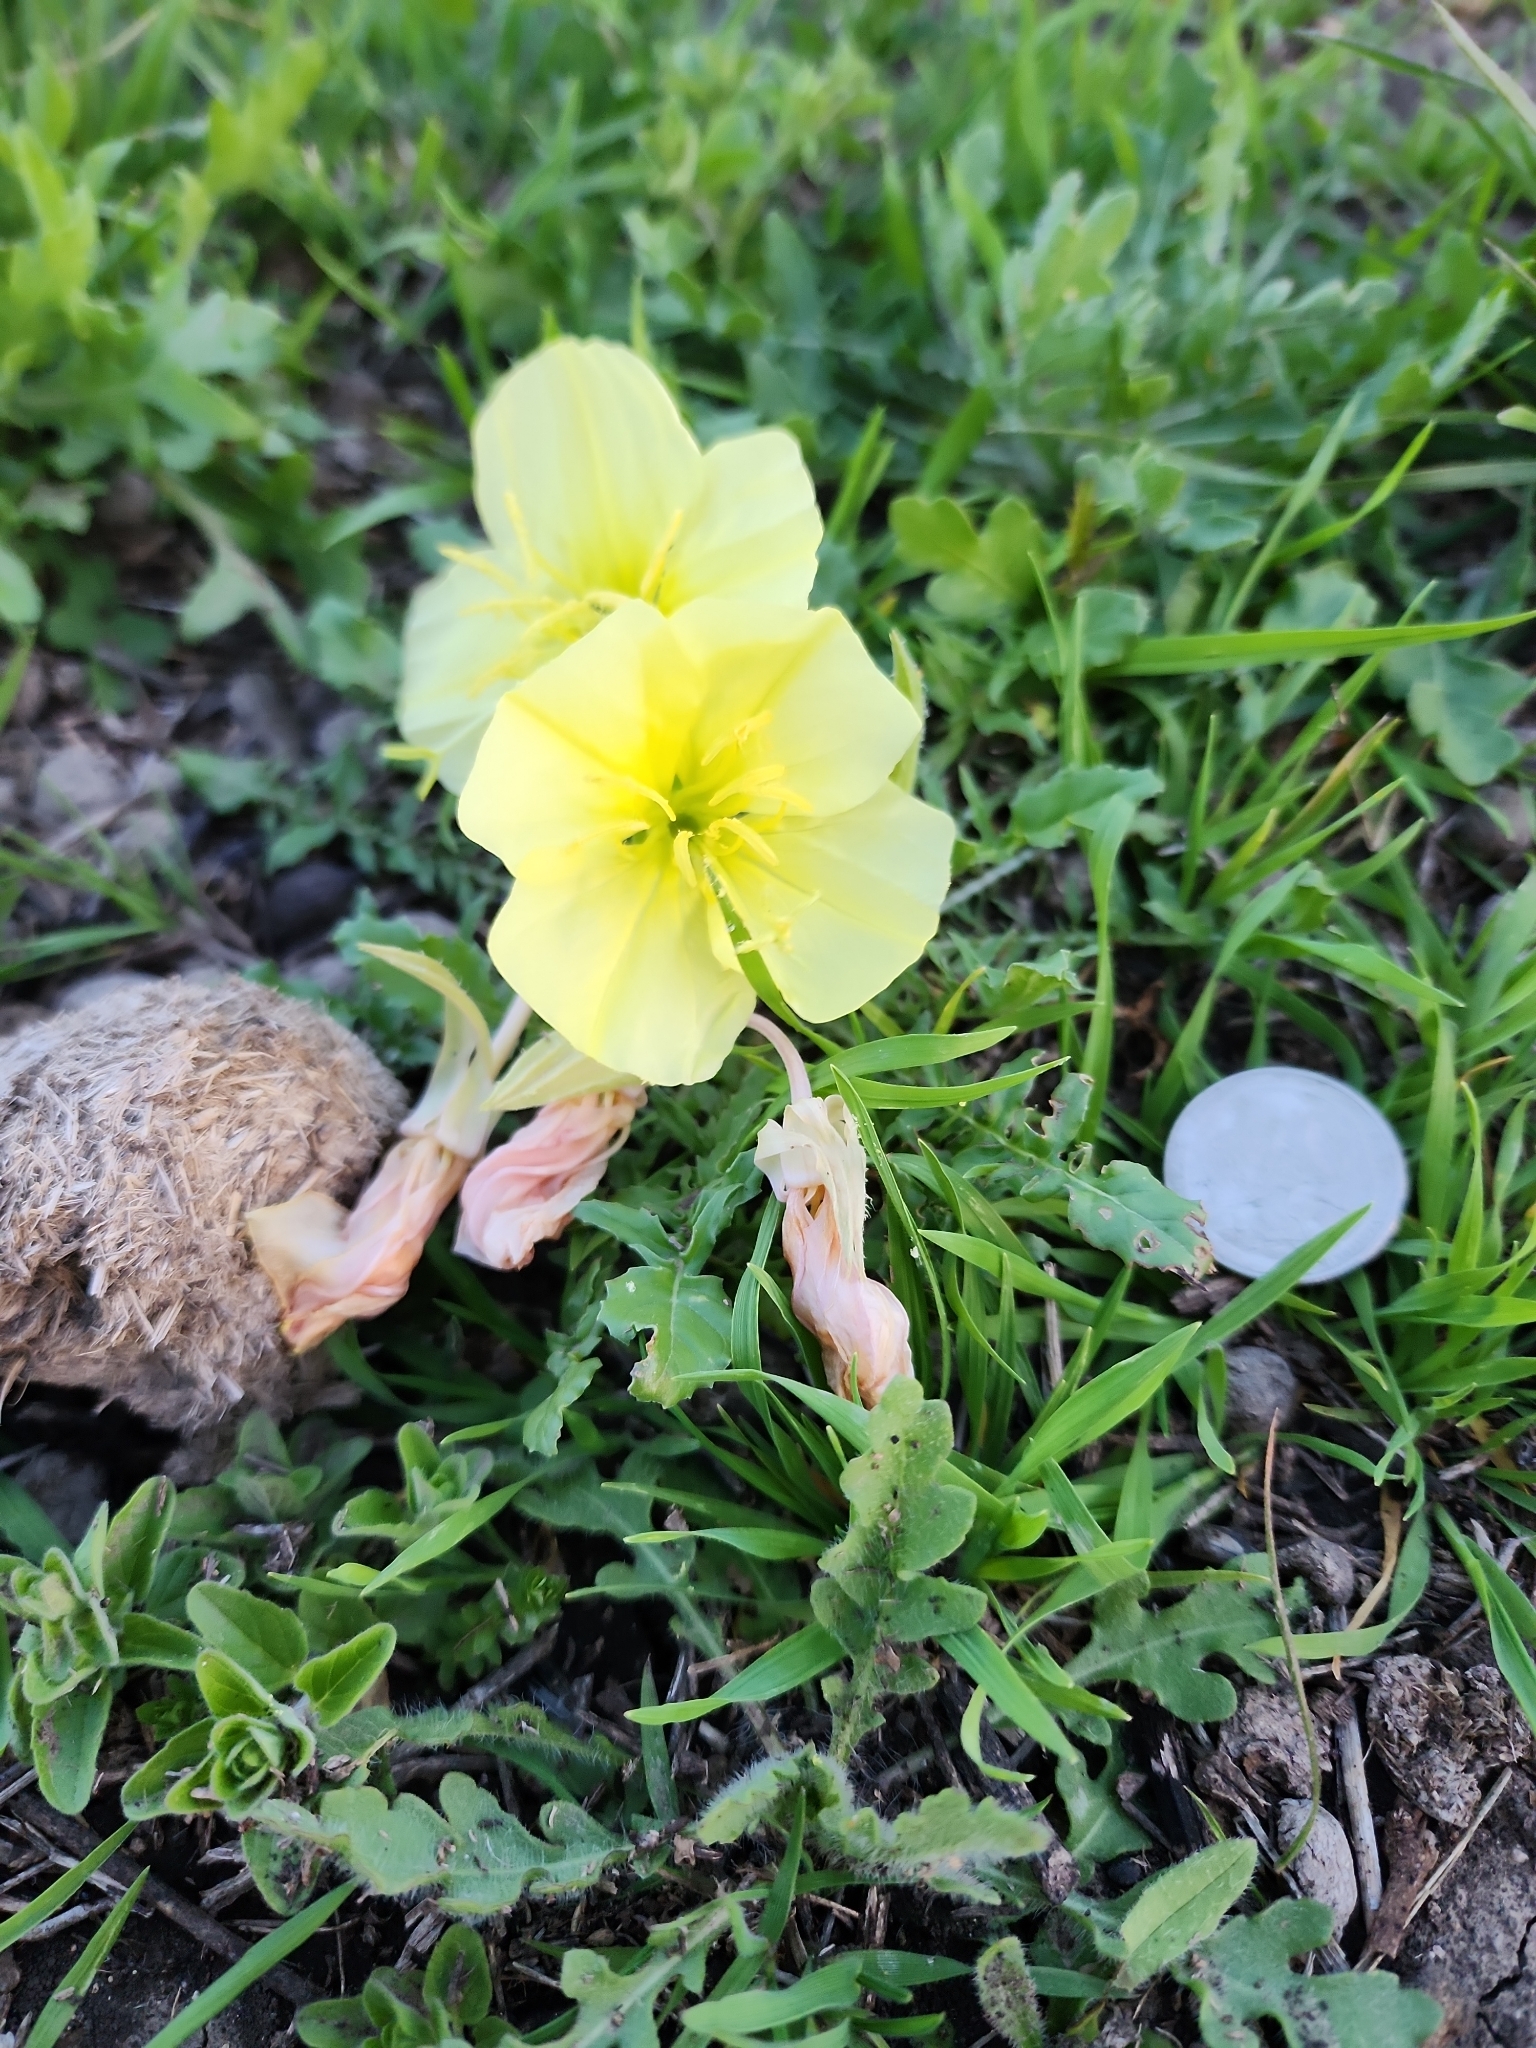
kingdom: Plantae
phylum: Tracheophyta
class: Magnoliopsida
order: Myrtales
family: Onagraceae
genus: Oenothera
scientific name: Oenothera triloba
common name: Sessile evening-primrose
